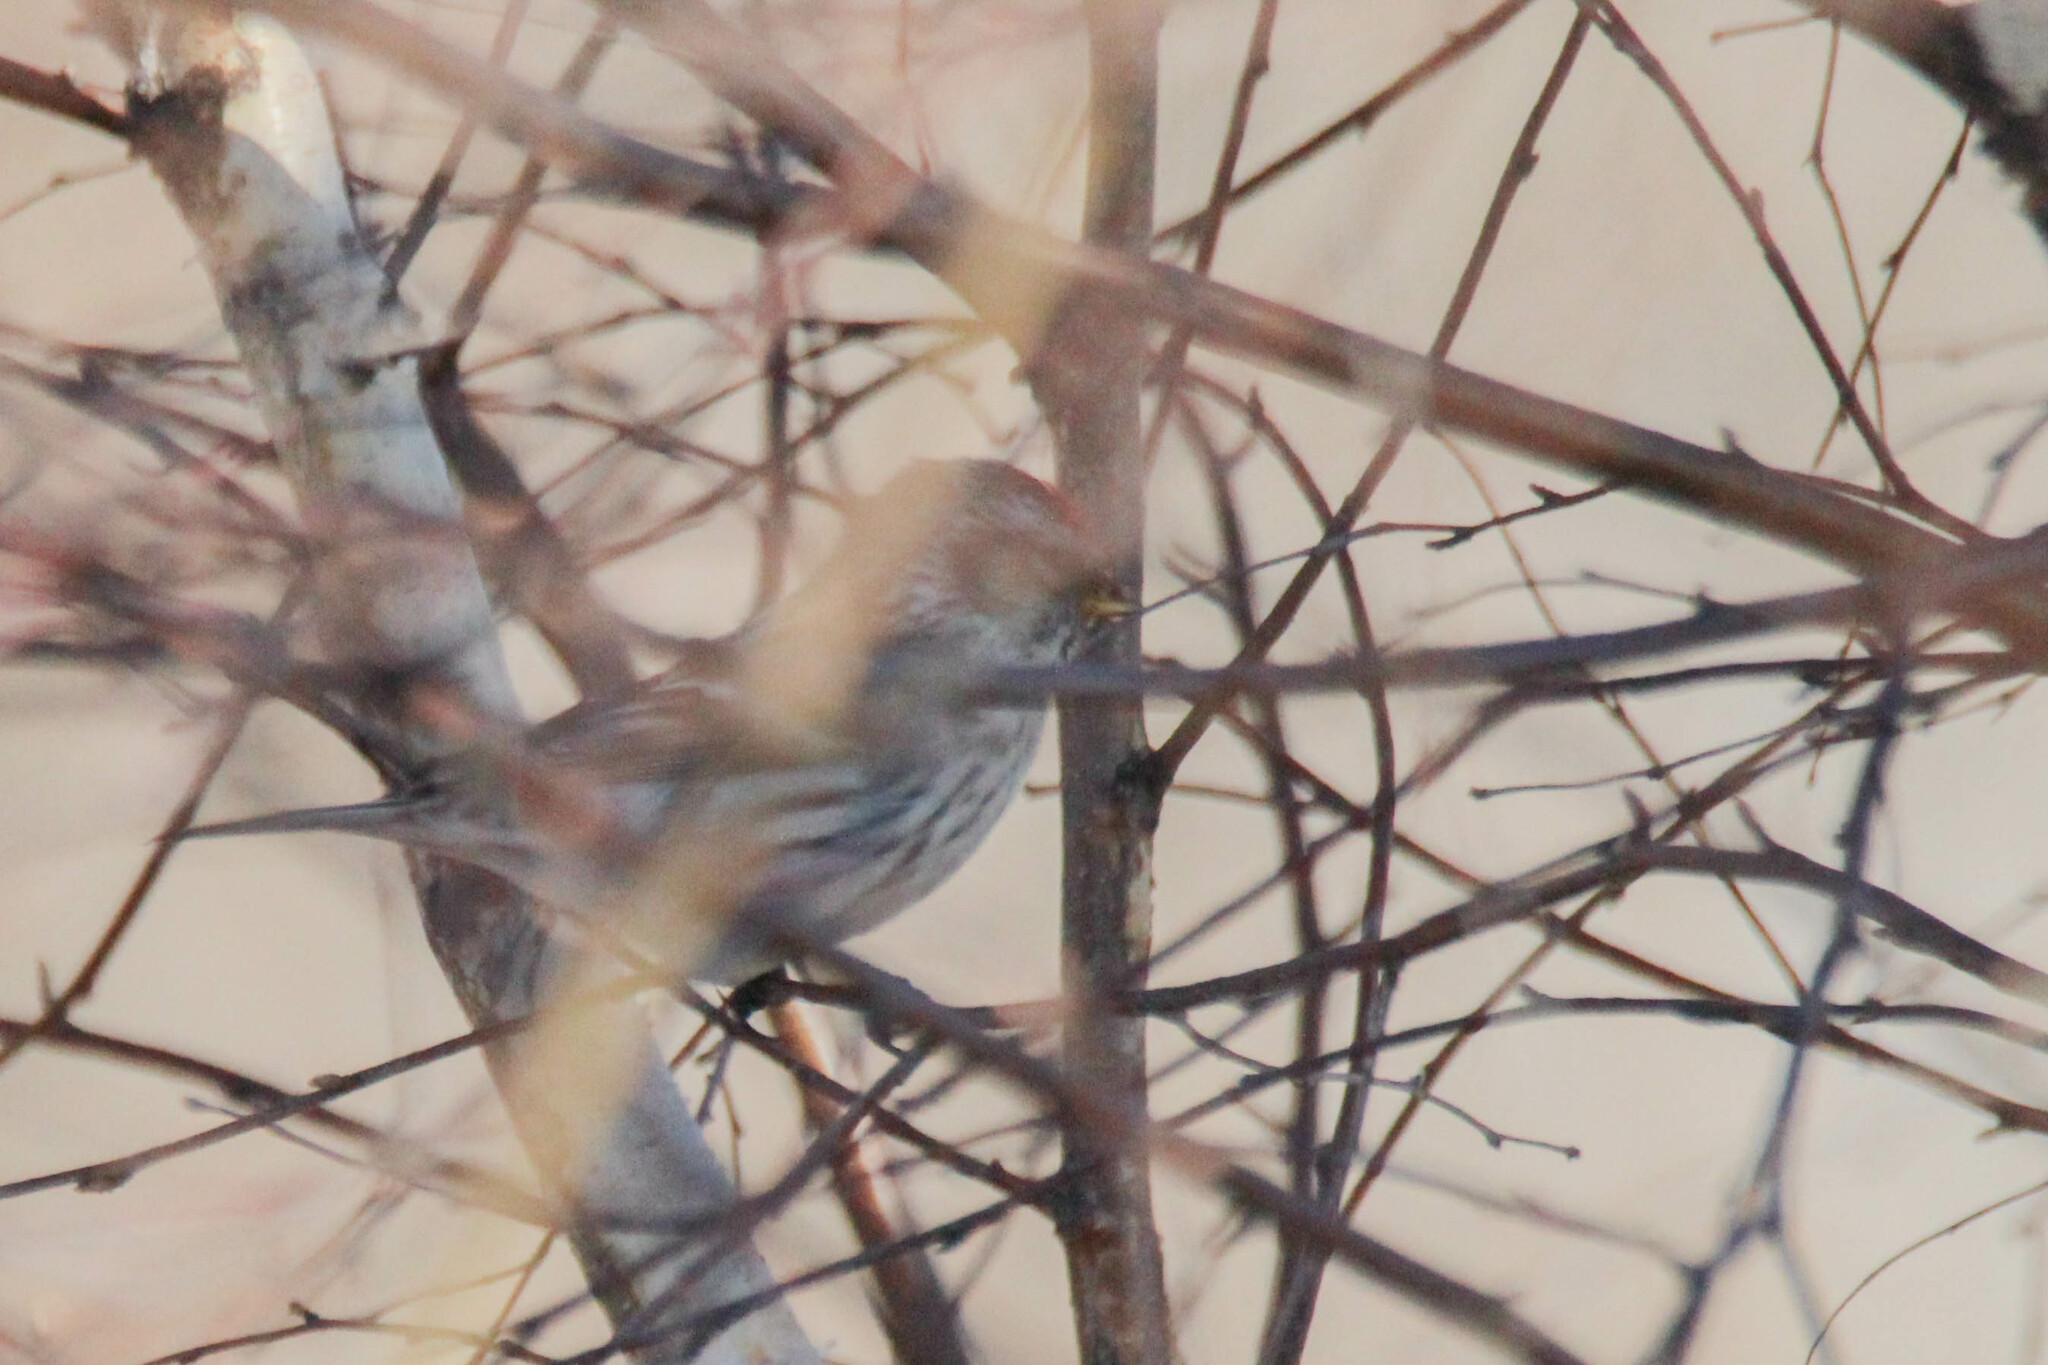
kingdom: Animalia
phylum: Chordata
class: Aves
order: Passeriformes
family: Fringillidae
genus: Acanthis
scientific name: Acanthis flammea
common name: Common redpoll
